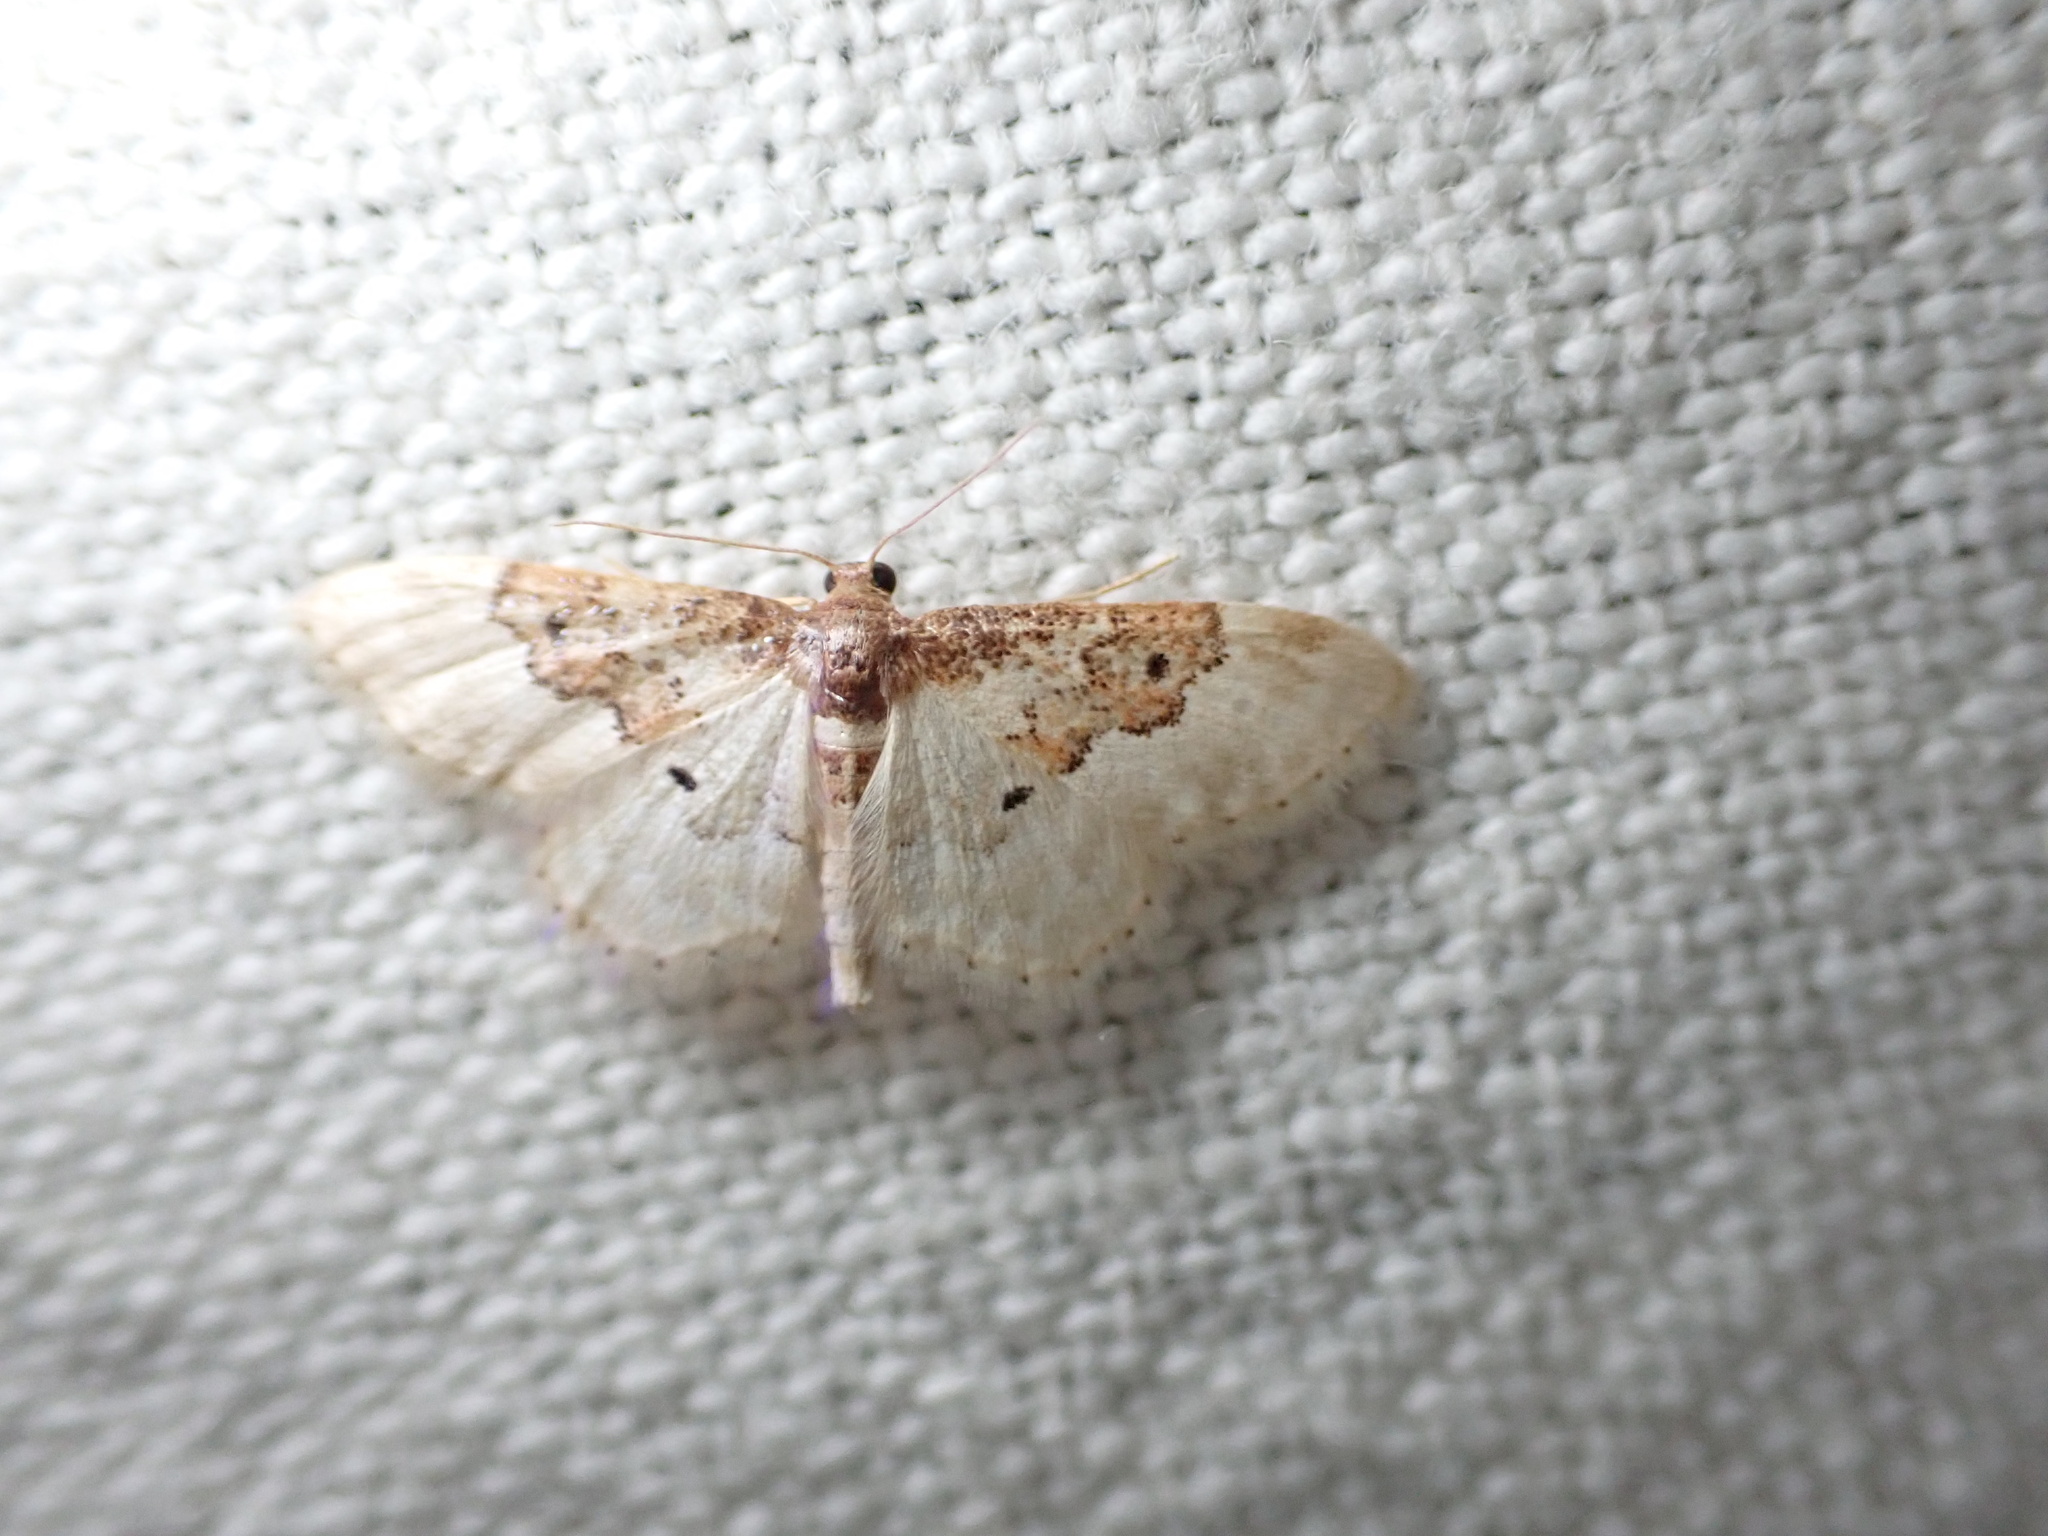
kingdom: Animalia
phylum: Arthropoda
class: Insecta
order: Lepidoptera
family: Geometridae
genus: Idaea
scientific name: Idaea rusticata
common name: Least carpet
